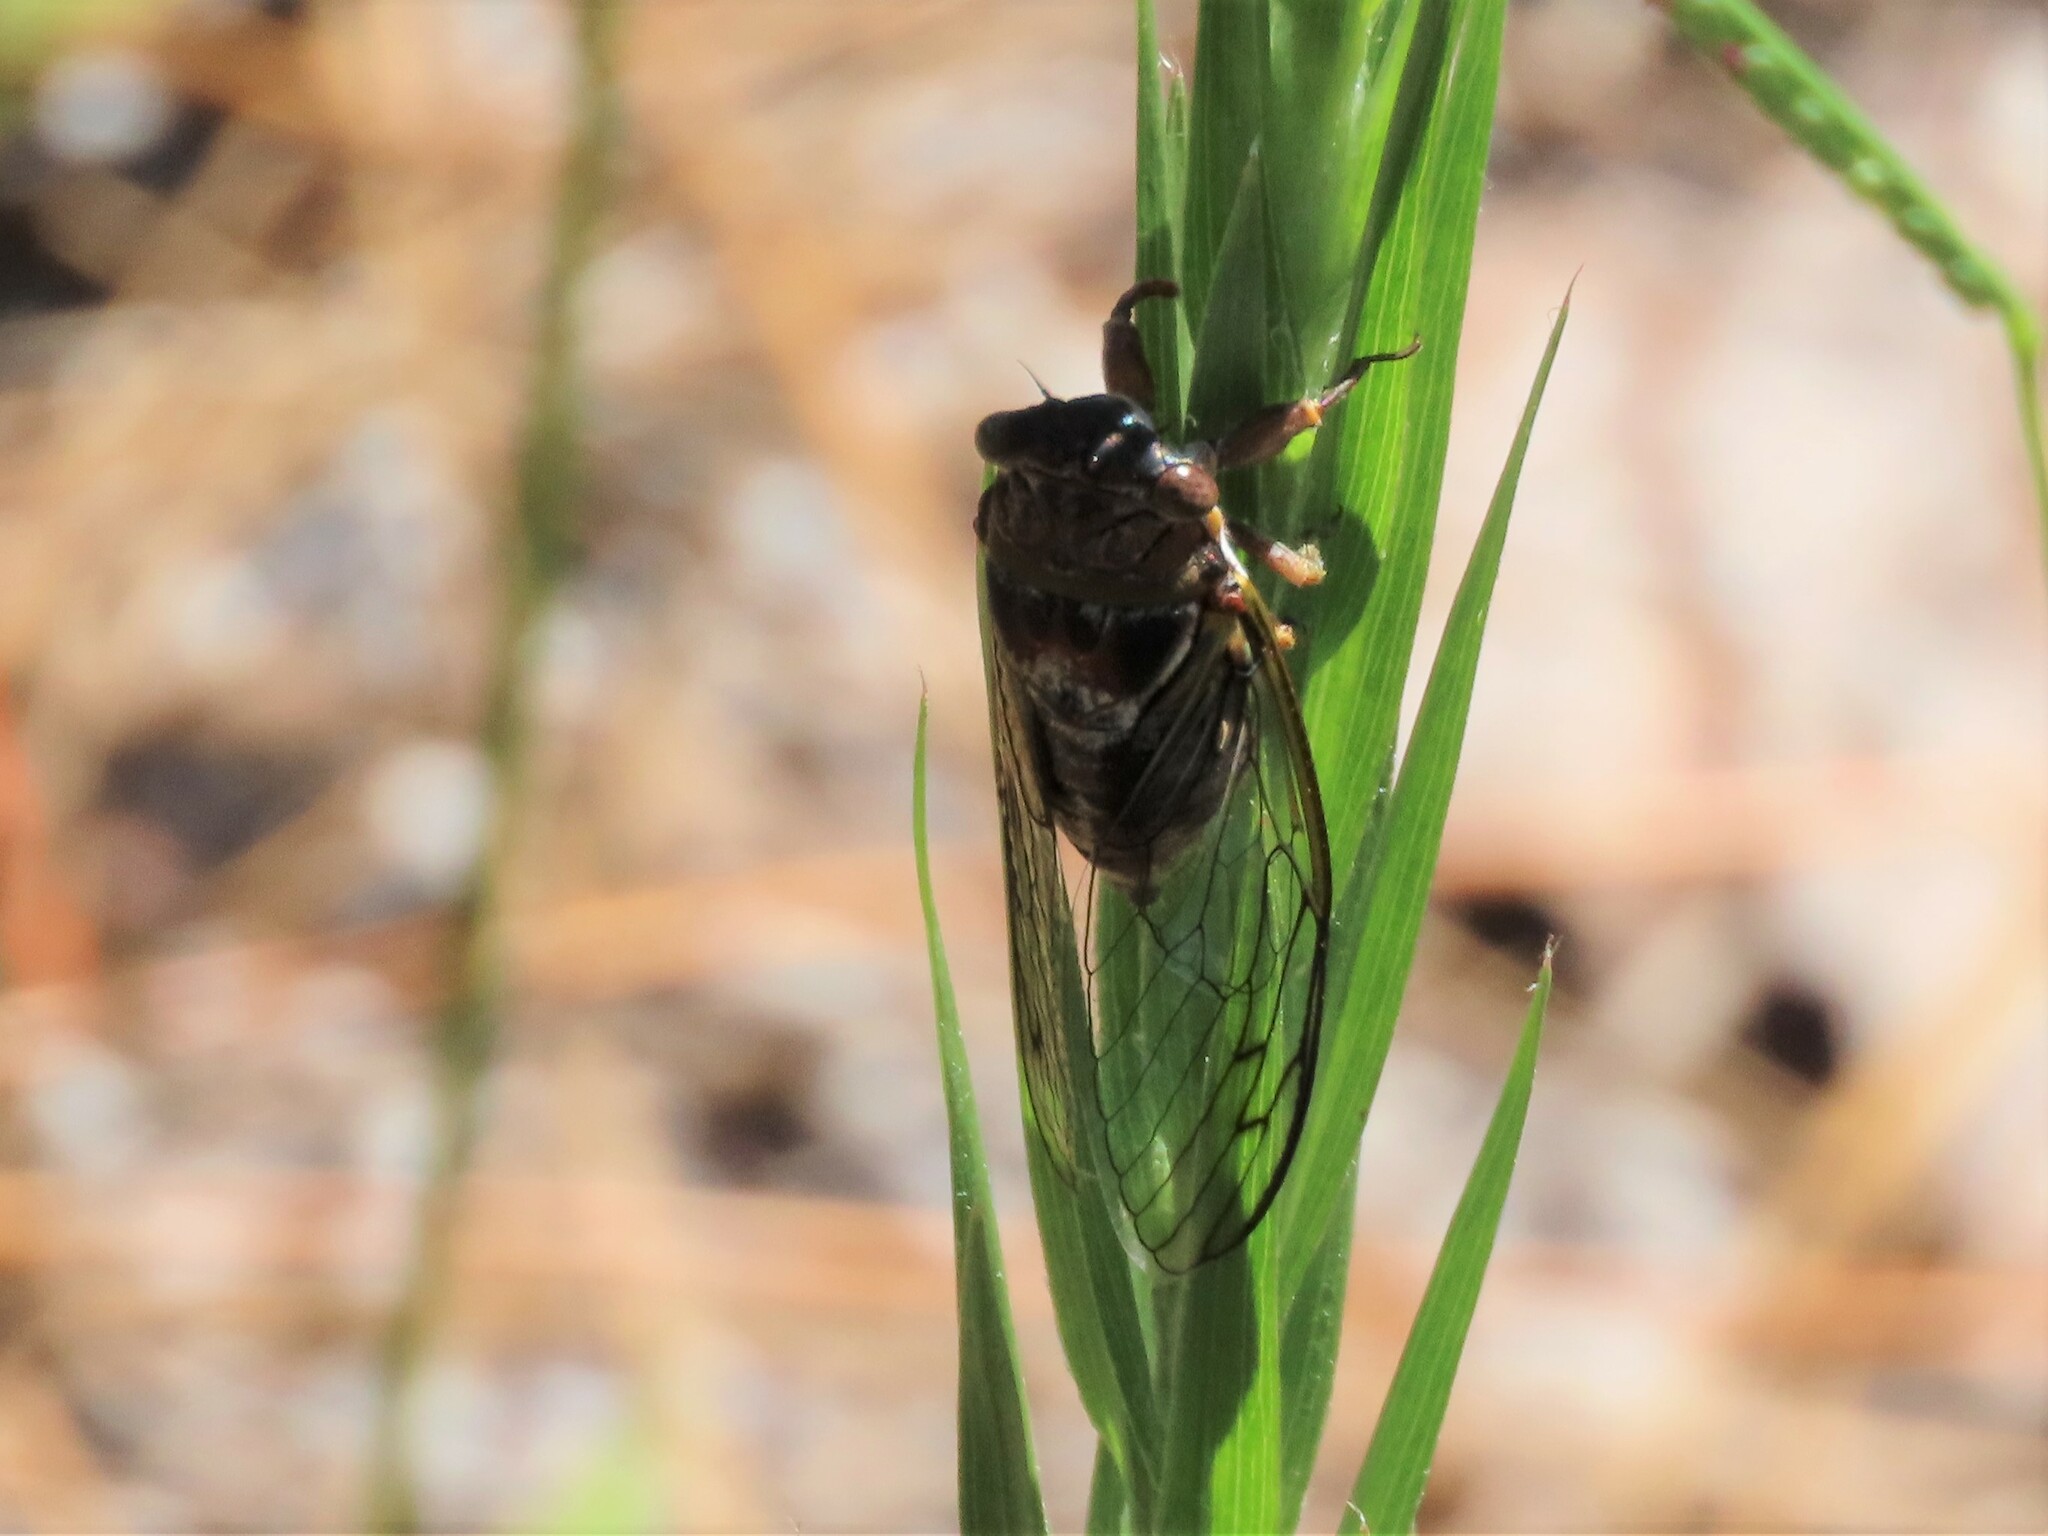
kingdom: Animalia
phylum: Arthropoda
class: Insecta
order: Hemiptera
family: Cicadidae
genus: Diceroprocta
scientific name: Diceroprocta olympusa
